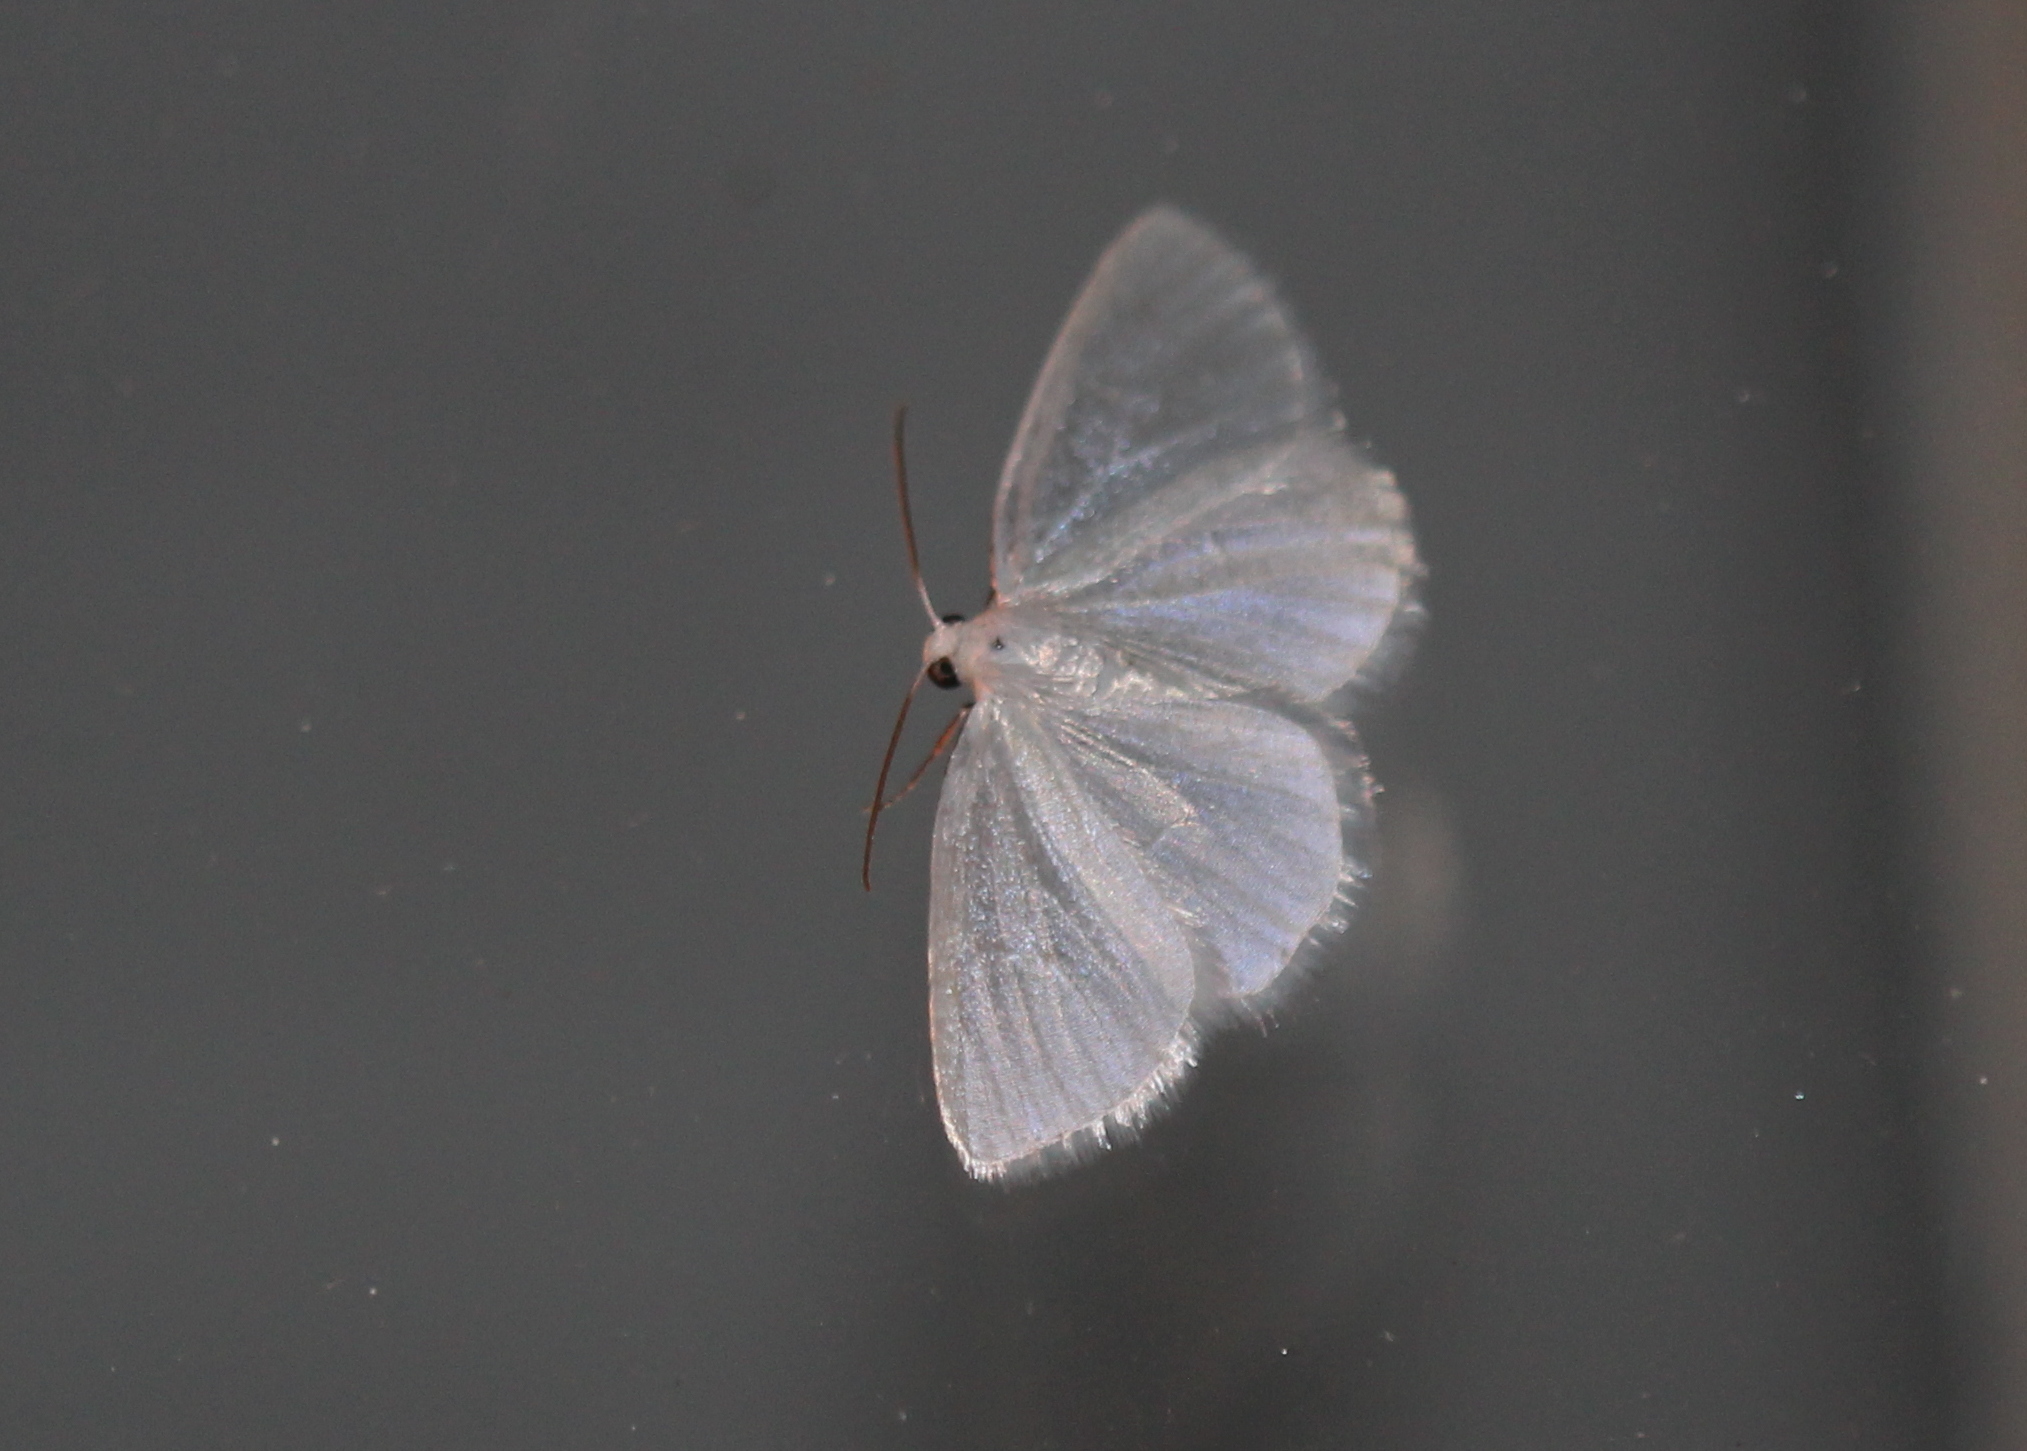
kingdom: Animalia
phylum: Arthropoda
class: Insecta
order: Lepidoptera
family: Geometridae
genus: Lomographa
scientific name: Lomographa vestaliata
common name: White spring moth
